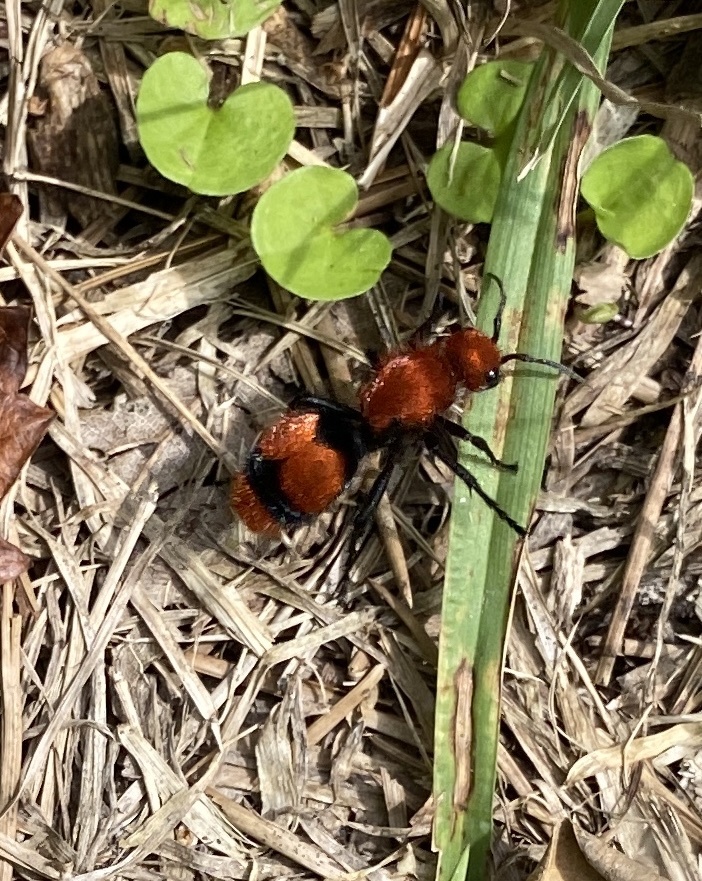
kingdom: Animalia
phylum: Arthropoda
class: Insecta
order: Hymenoptera
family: Mutillidae
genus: Dasymutilla
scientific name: Dasymutilla occidentalis
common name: Common eastern velvet ant
